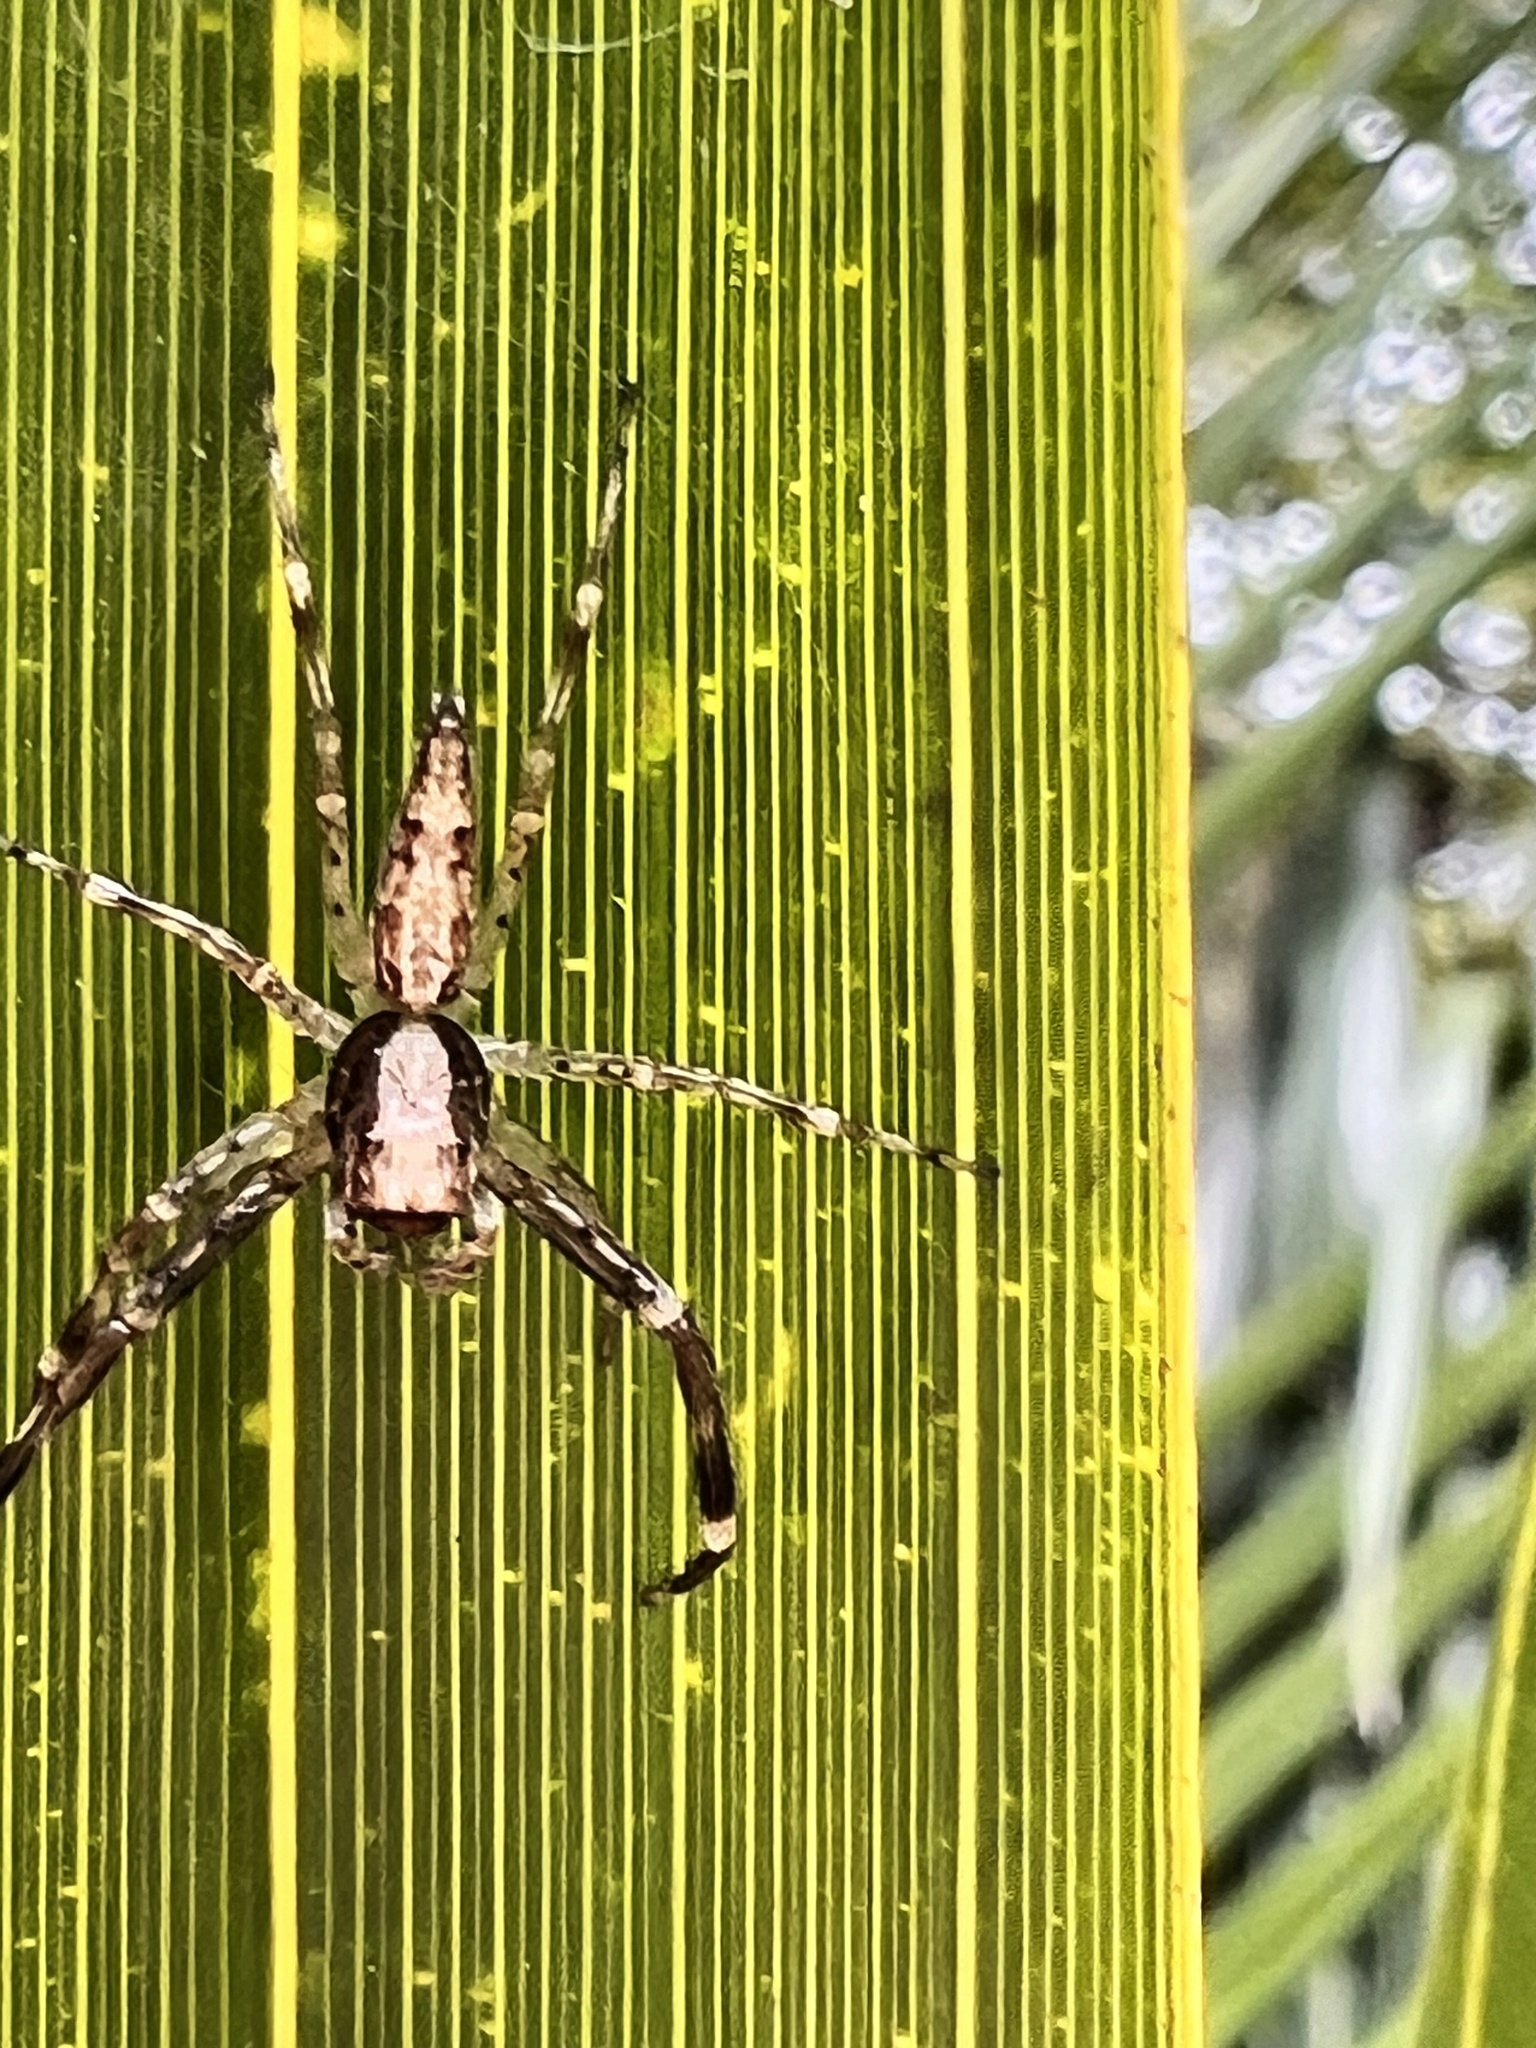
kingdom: Animalia
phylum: Arthropoda
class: Arachnida
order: Araneae
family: Salticidae
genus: Helpis
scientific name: Helpis minitabunda
